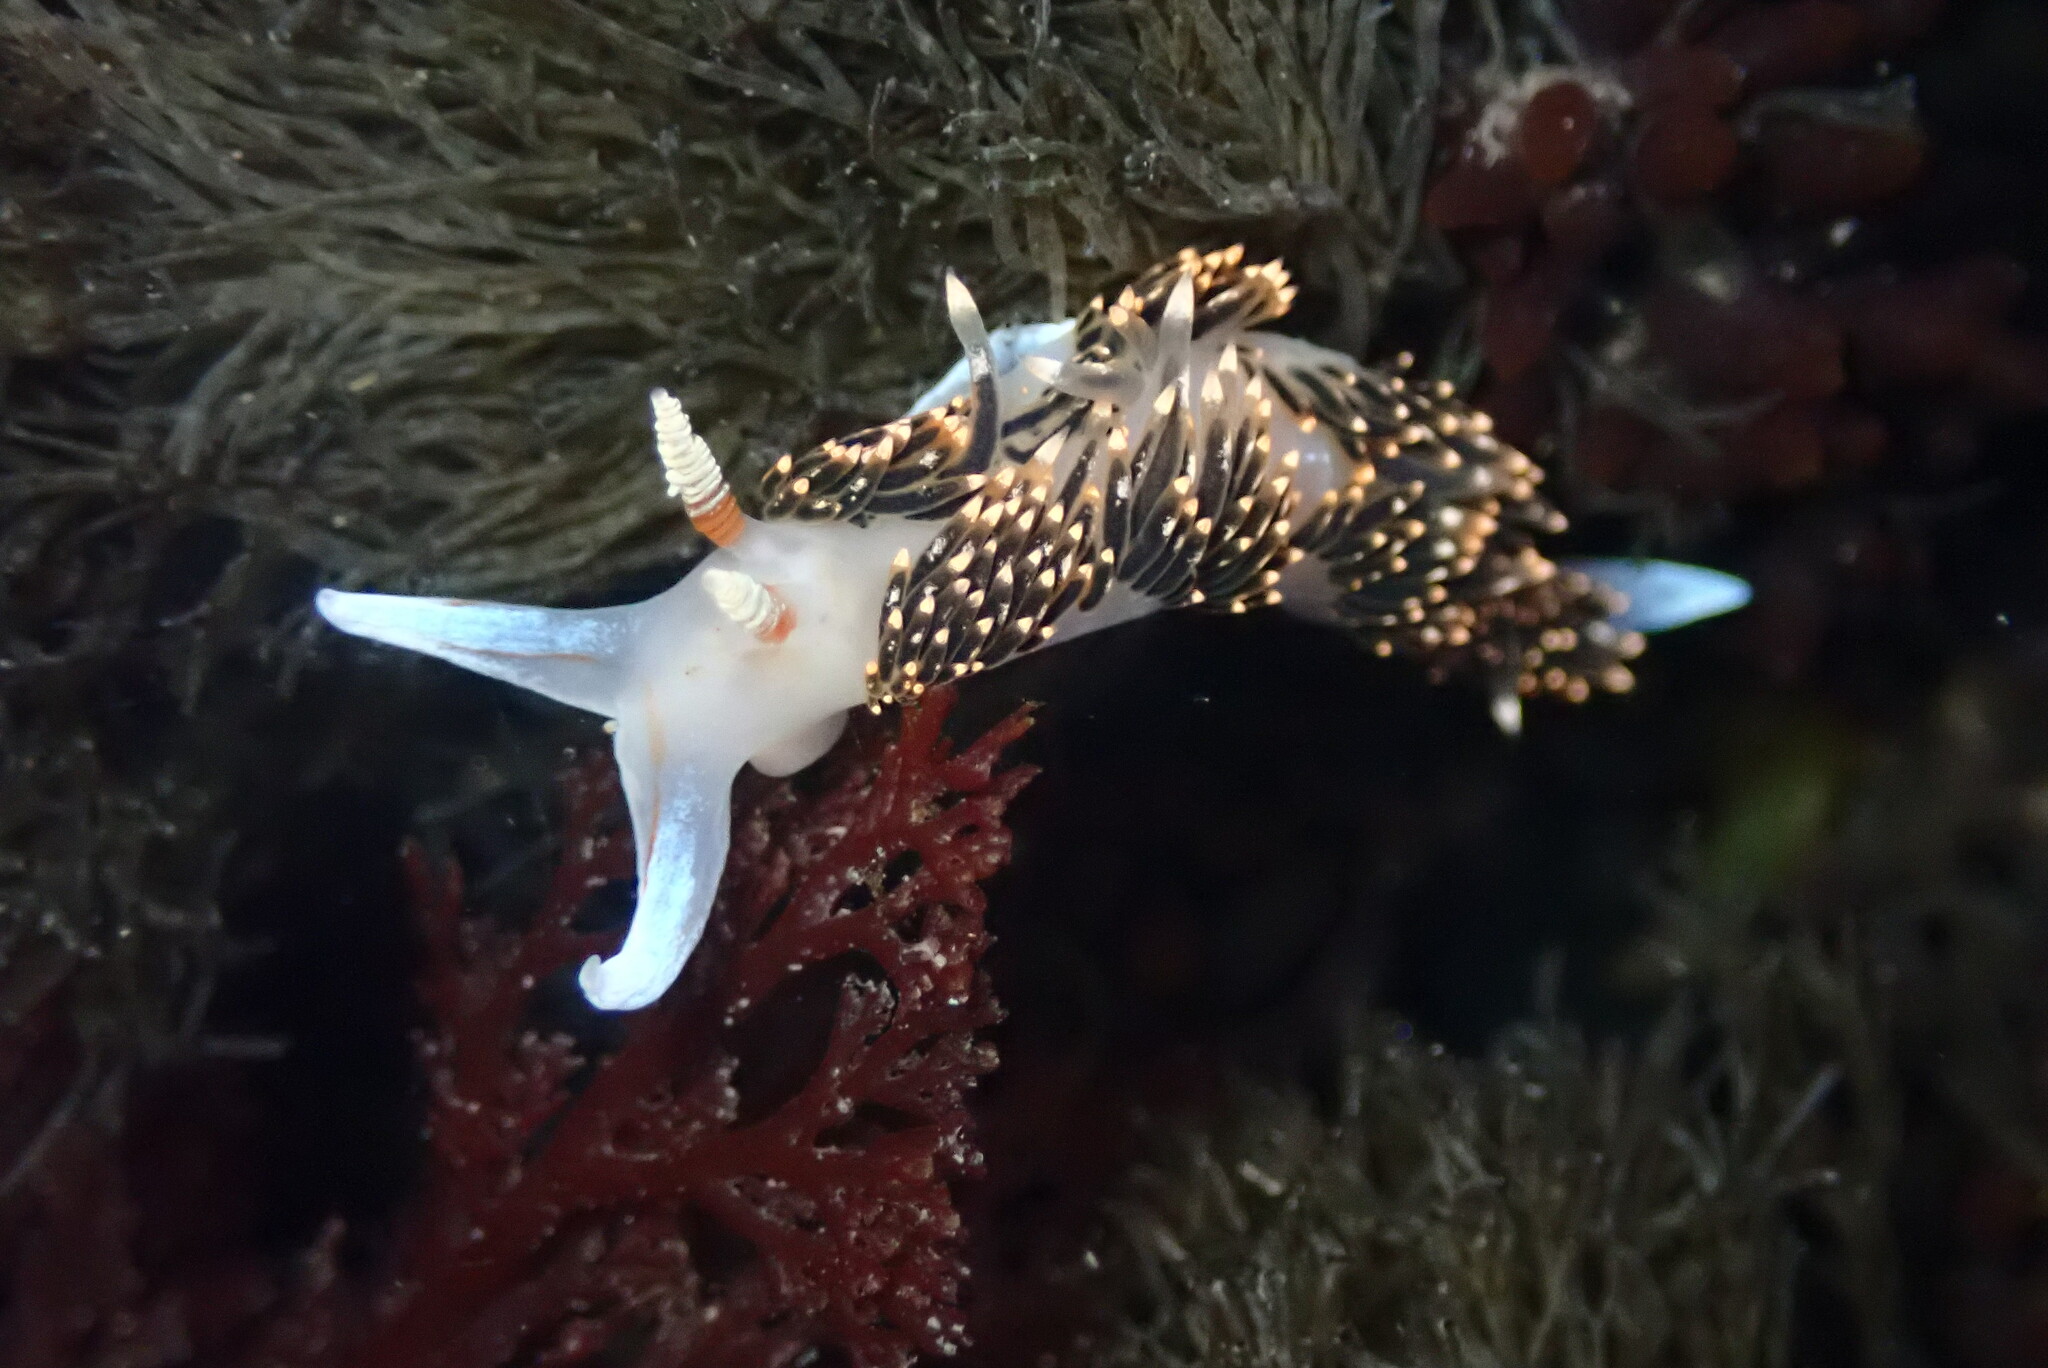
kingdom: Animalia
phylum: Mollusca
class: Gastropoda
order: Nudibranchia
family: Facelinidae
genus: Phidiana
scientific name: Phidiana hiltoni
